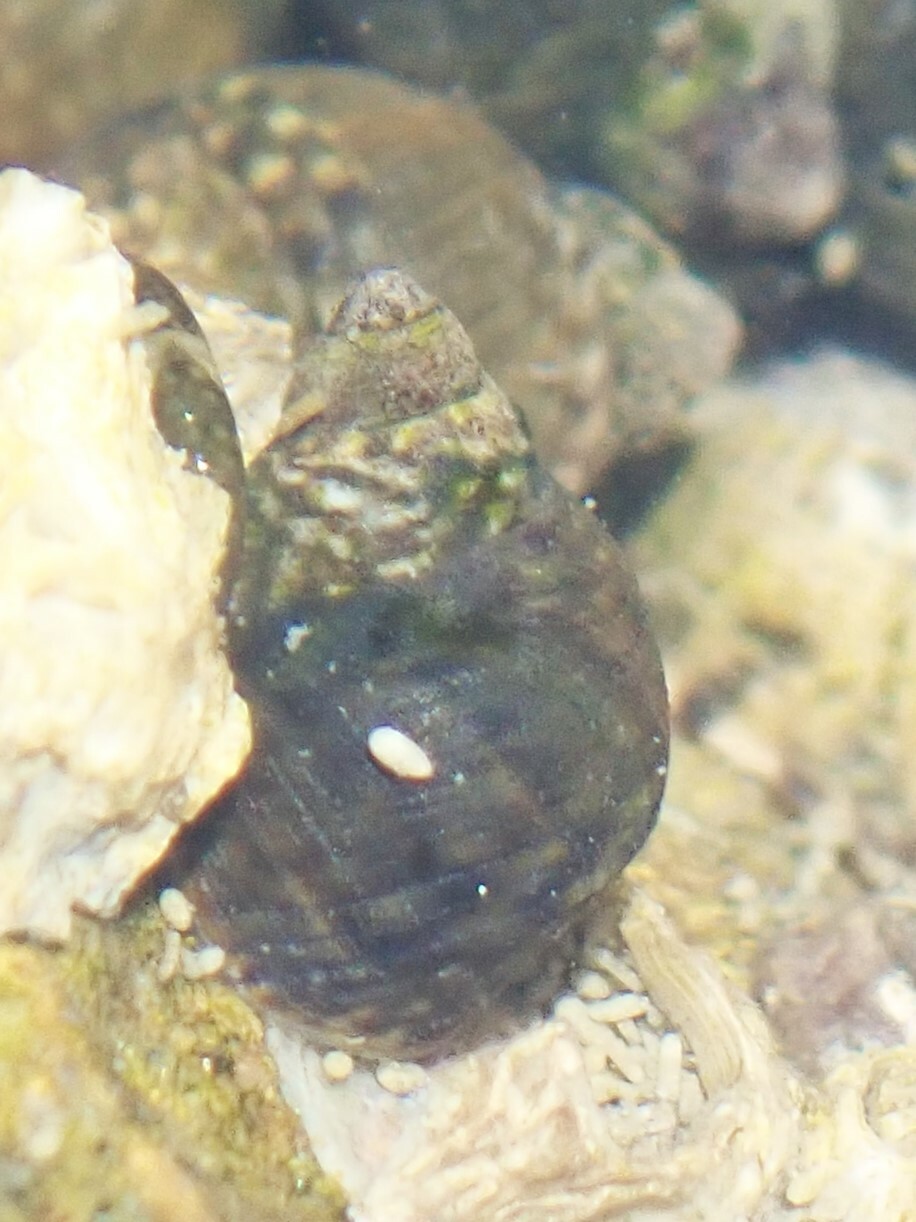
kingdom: Animalia
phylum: Mollusca
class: Gastropoda
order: Littorinimorpha
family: Littorinidae
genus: Littorina
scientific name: Littorina scutulata
